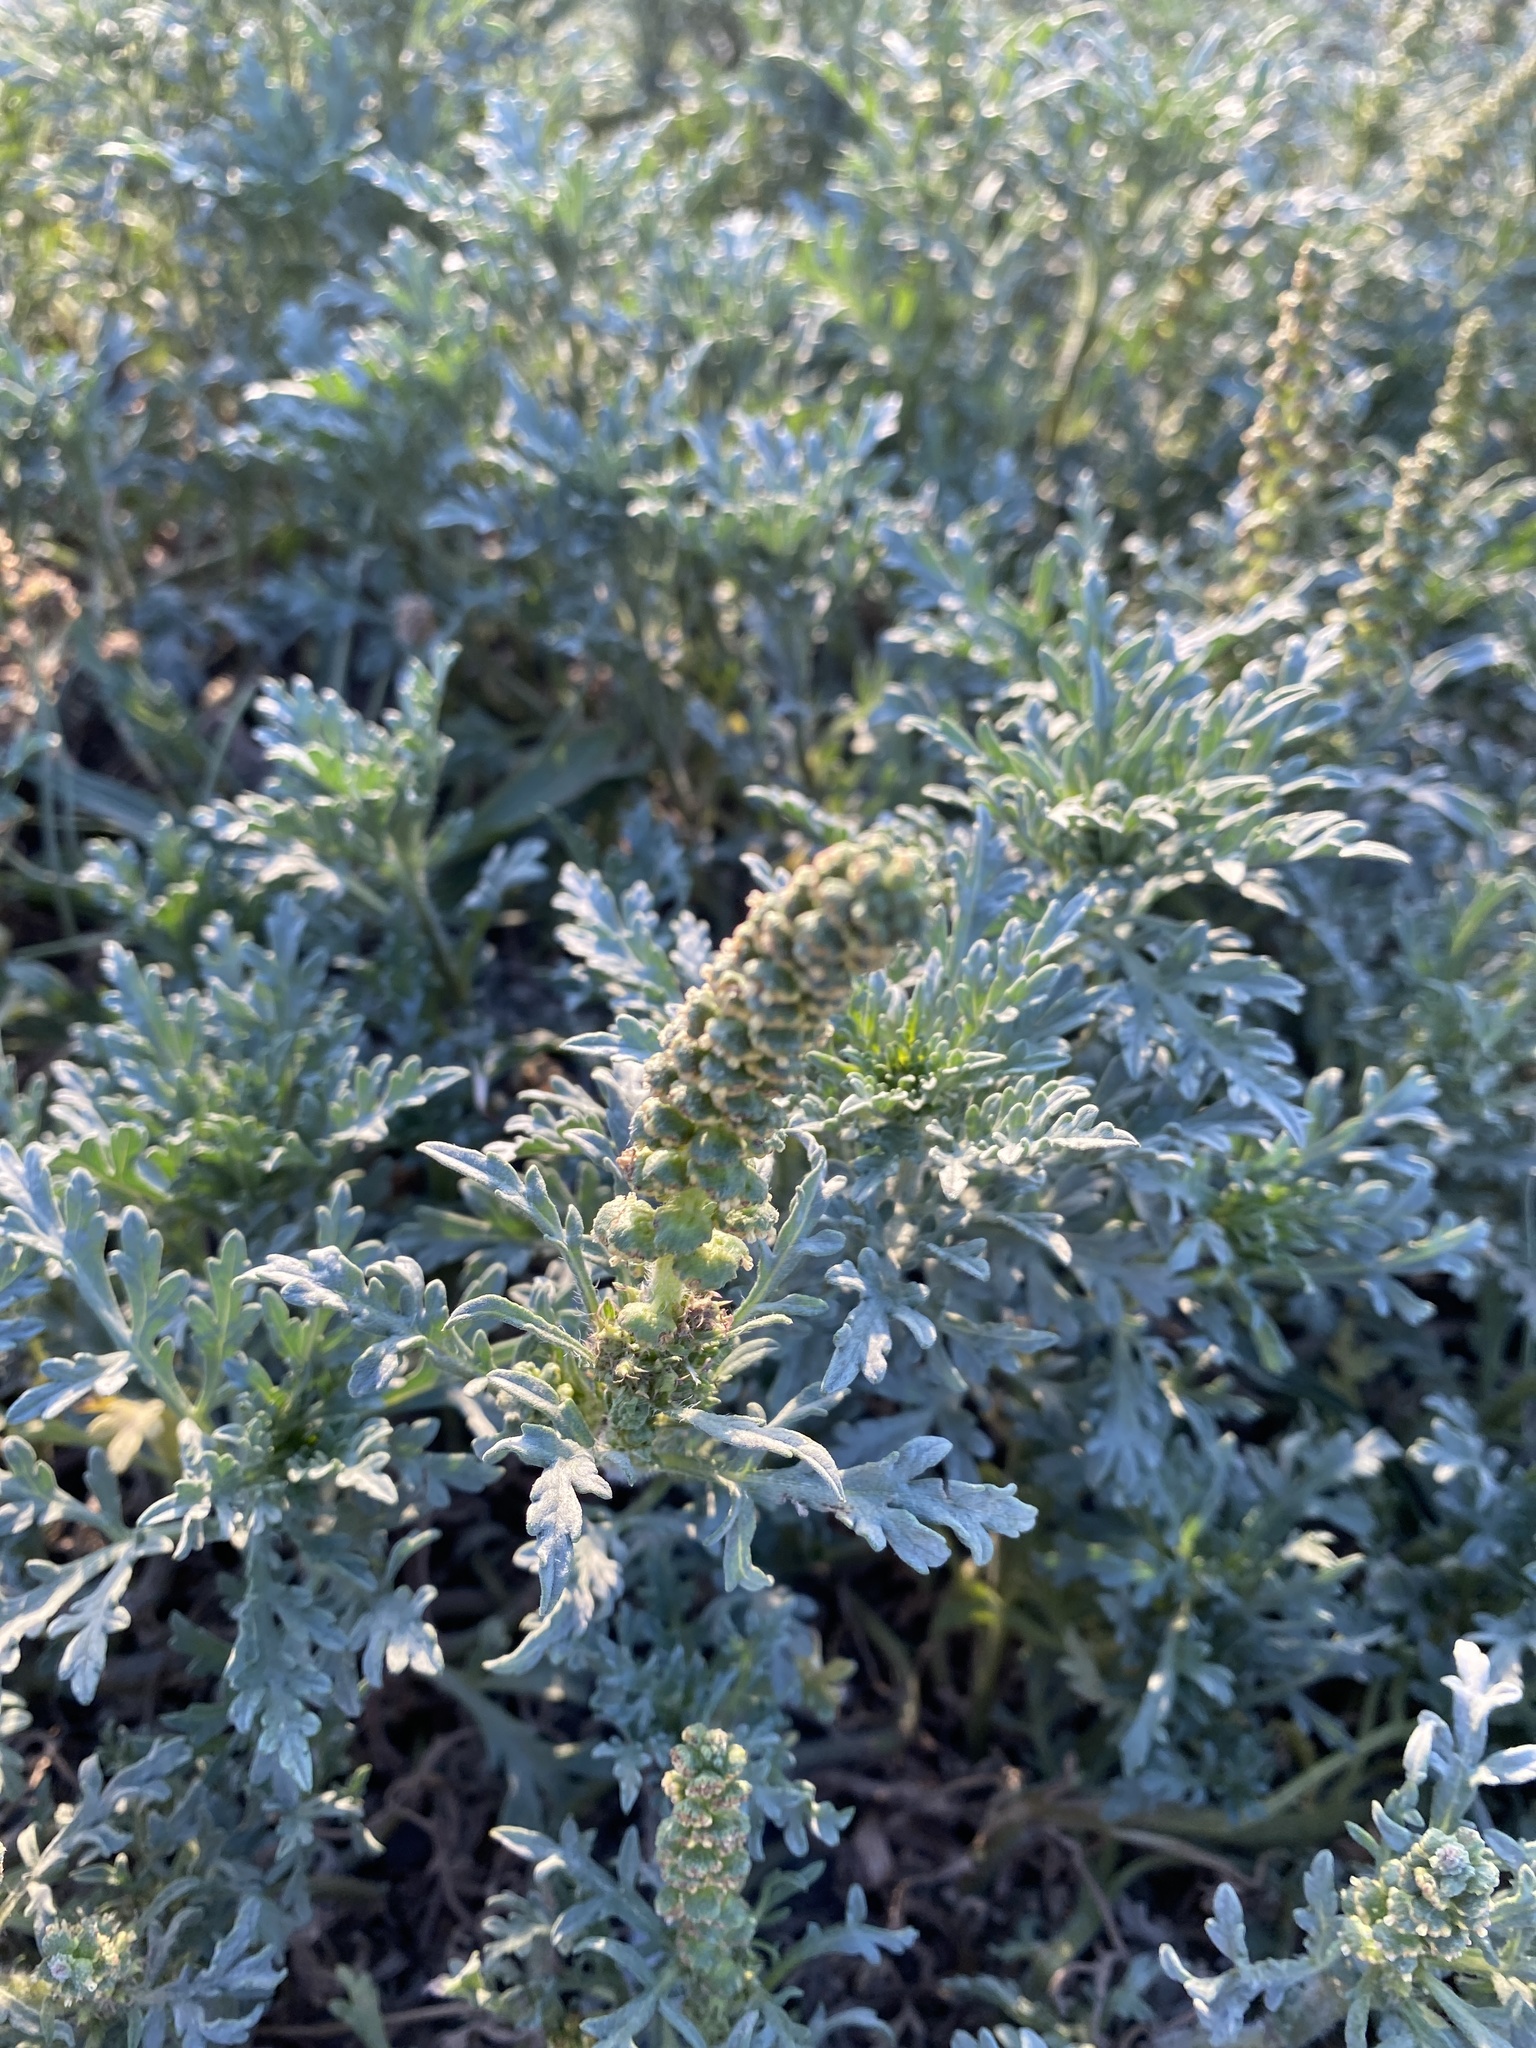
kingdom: Plantae
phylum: Tracheophyta
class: Magnoliopsida
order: Asterales
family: Asteraceae
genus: Ambrosia
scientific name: Ambrosia chamissonis
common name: Beachbur
